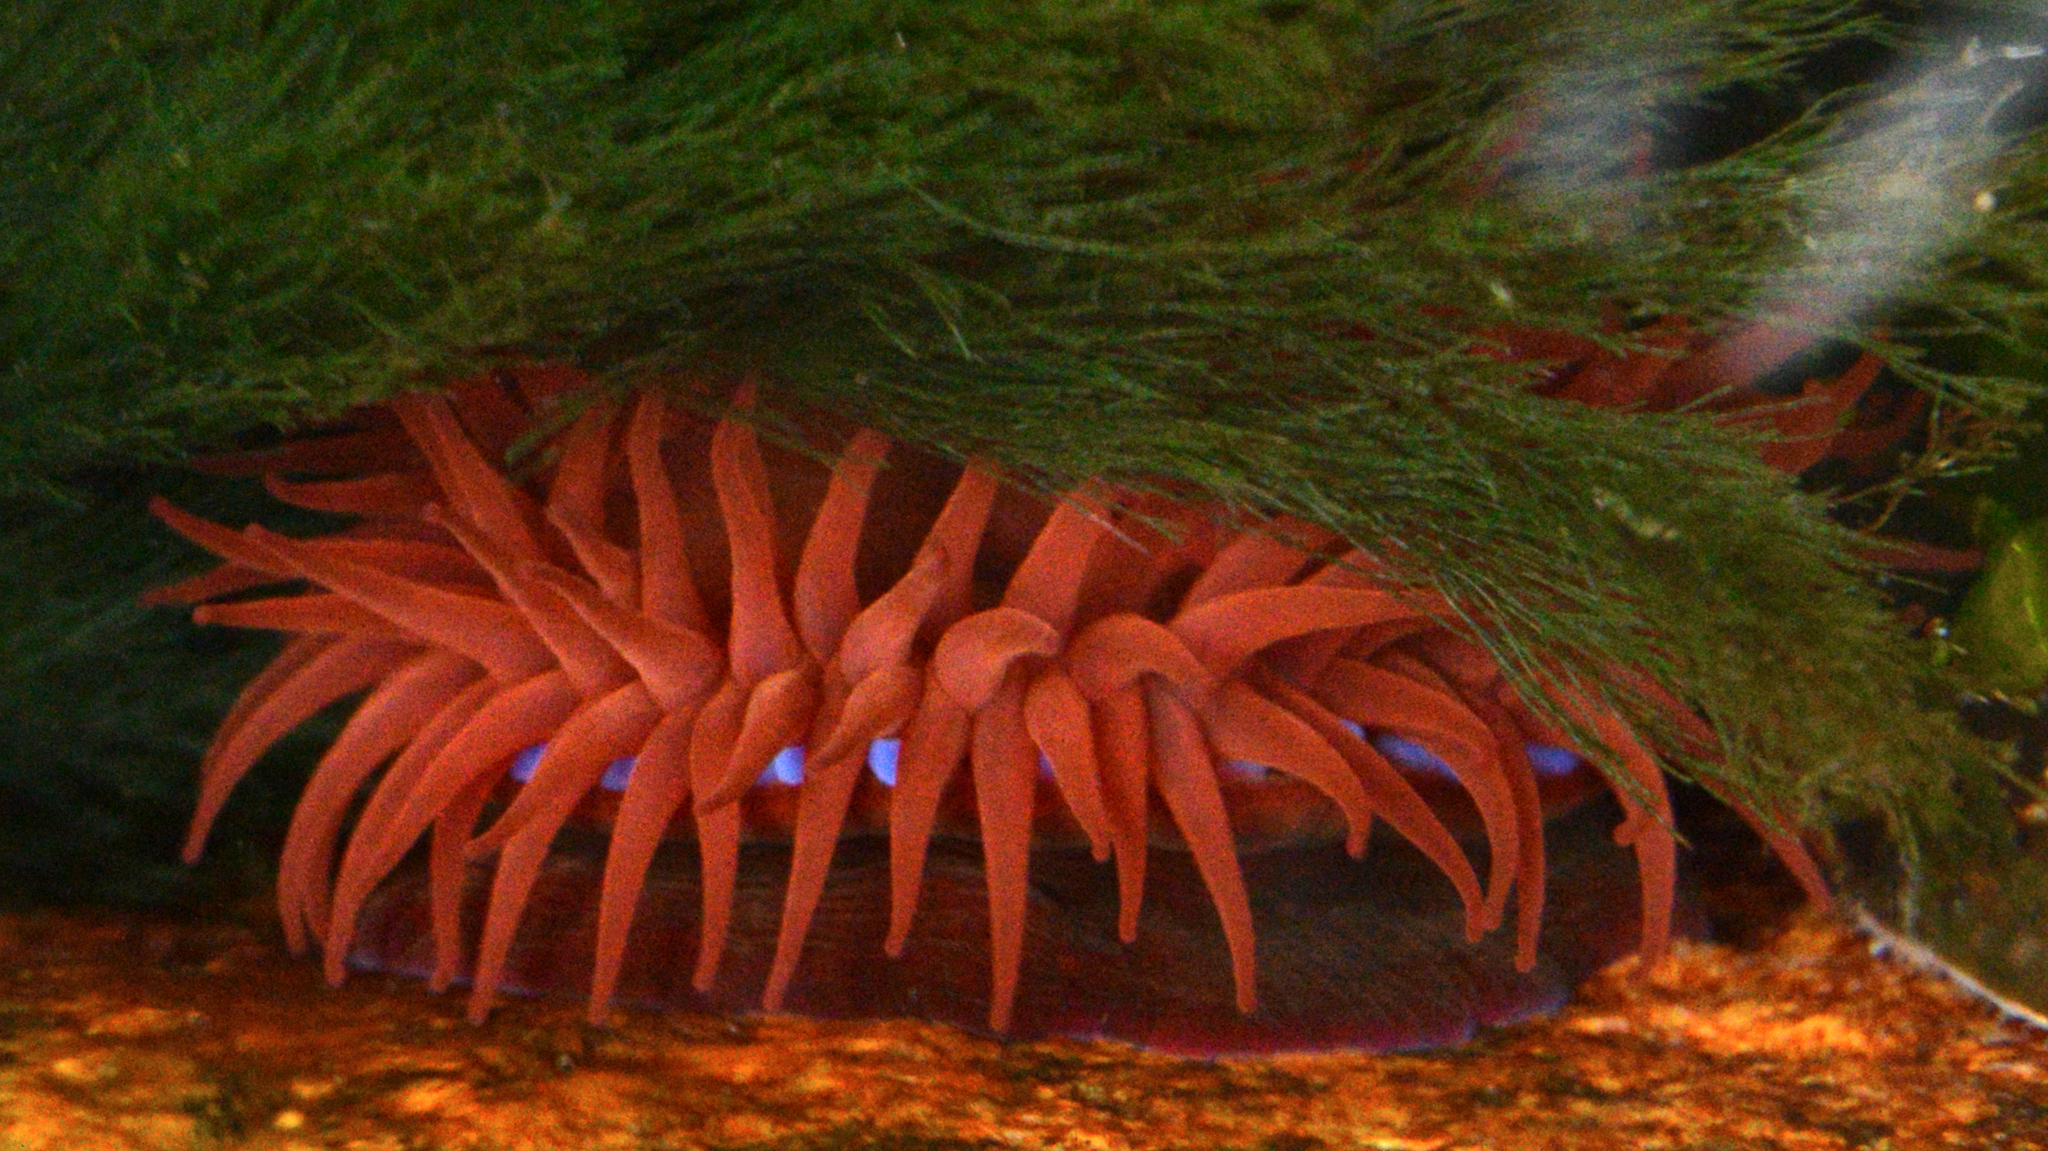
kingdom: Animalia
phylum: Cnidaria
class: Anthozoa
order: Actiniaria
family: Actiniidae
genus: Actinia
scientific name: Actinia equina
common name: Beadlet anemone
